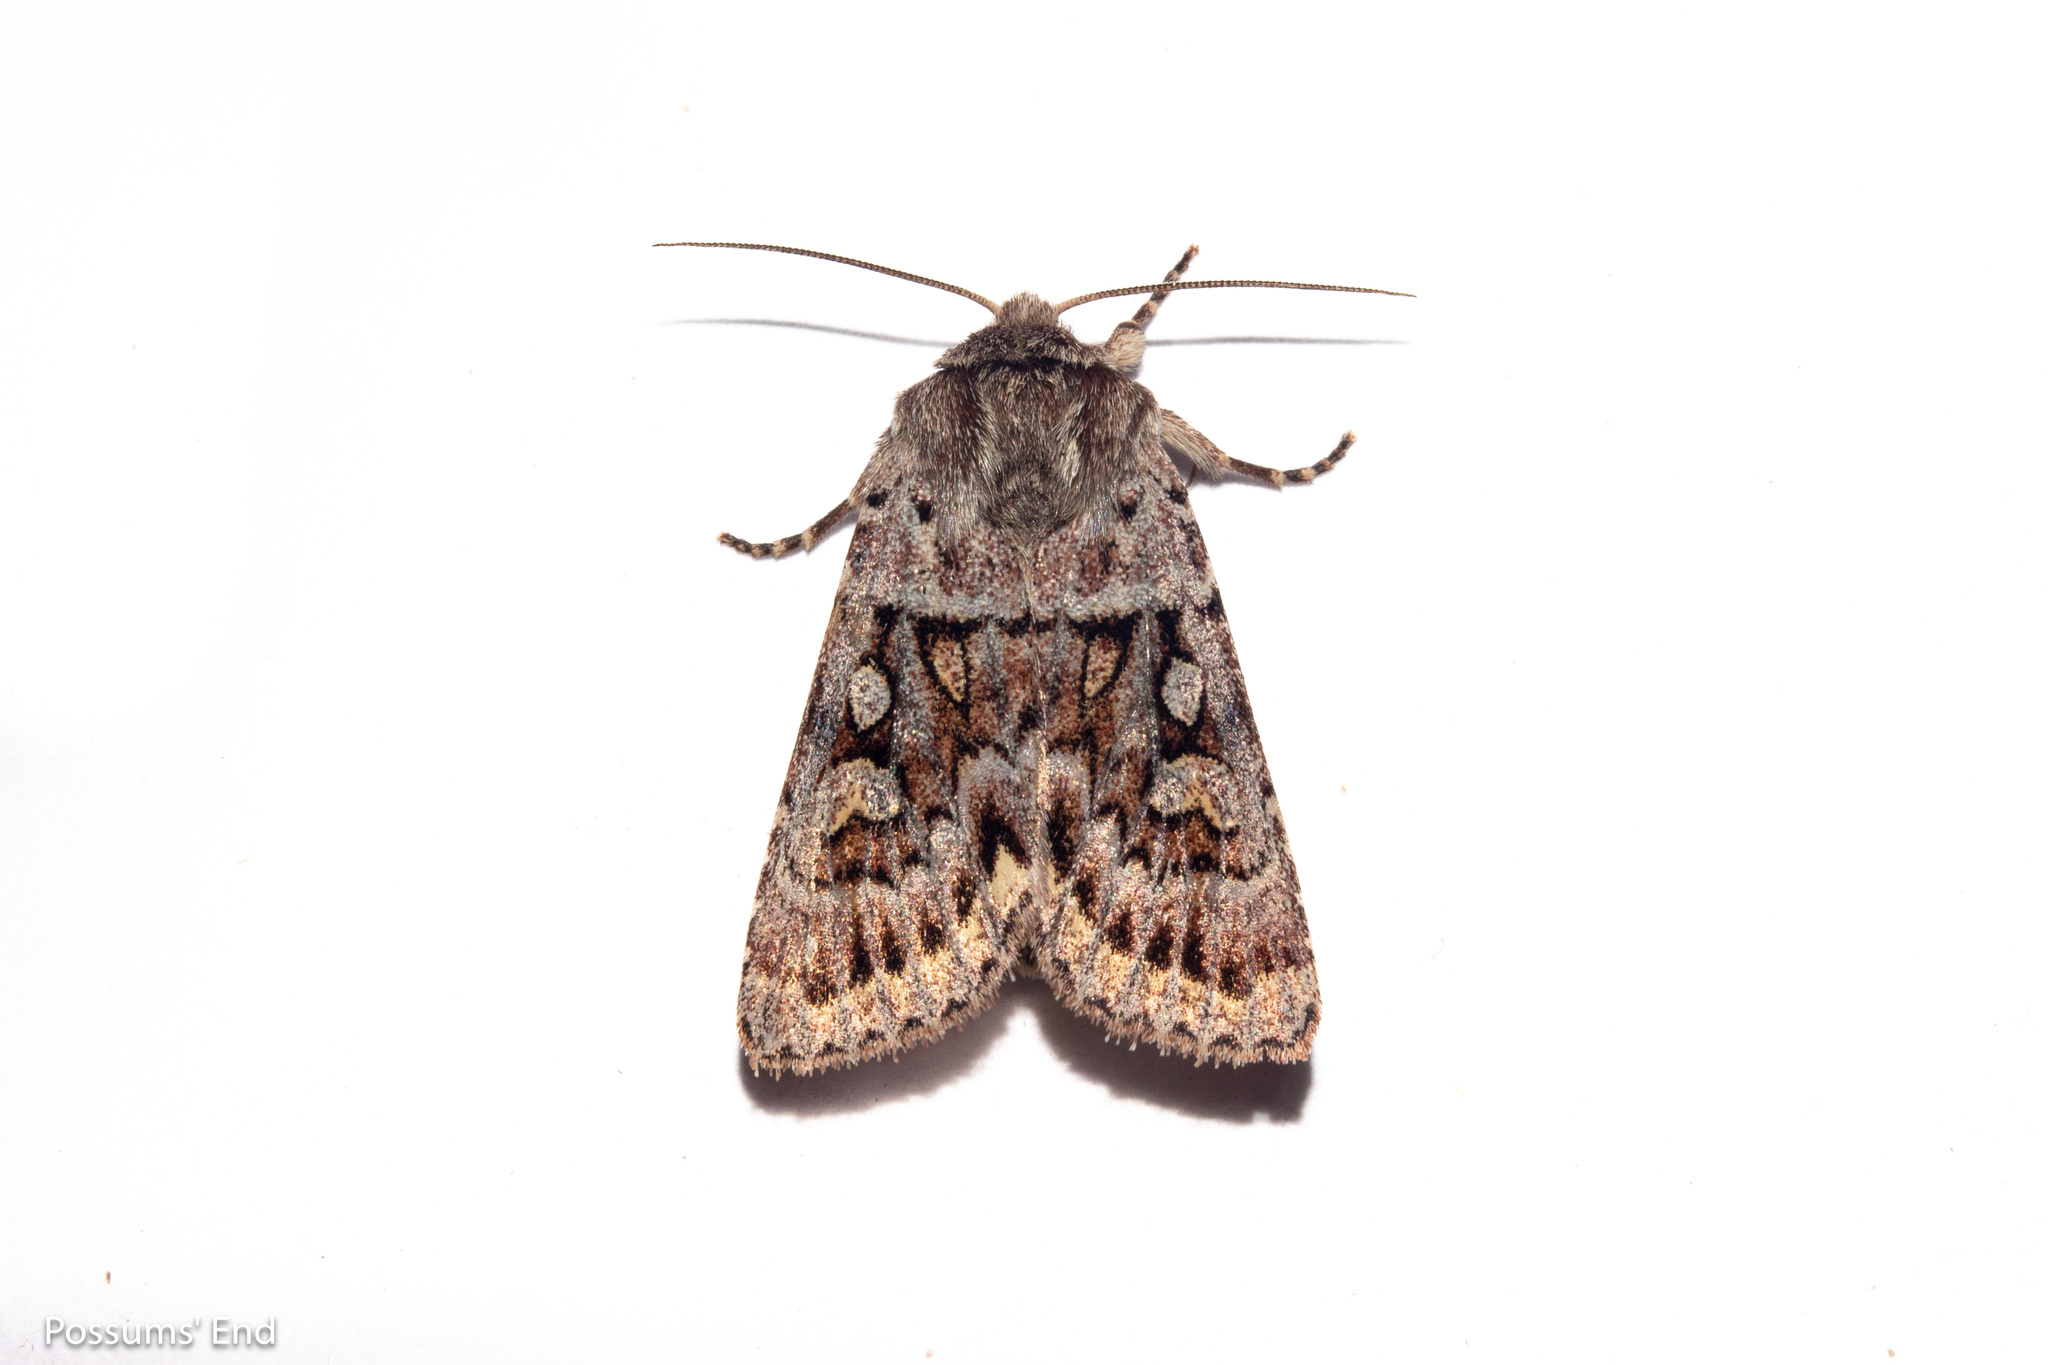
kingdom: Animalia
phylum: Arthropoda
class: Insecta
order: Lepidoptera
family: Noctuidae
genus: Ichneutica
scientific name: Ichneutica marmorata
